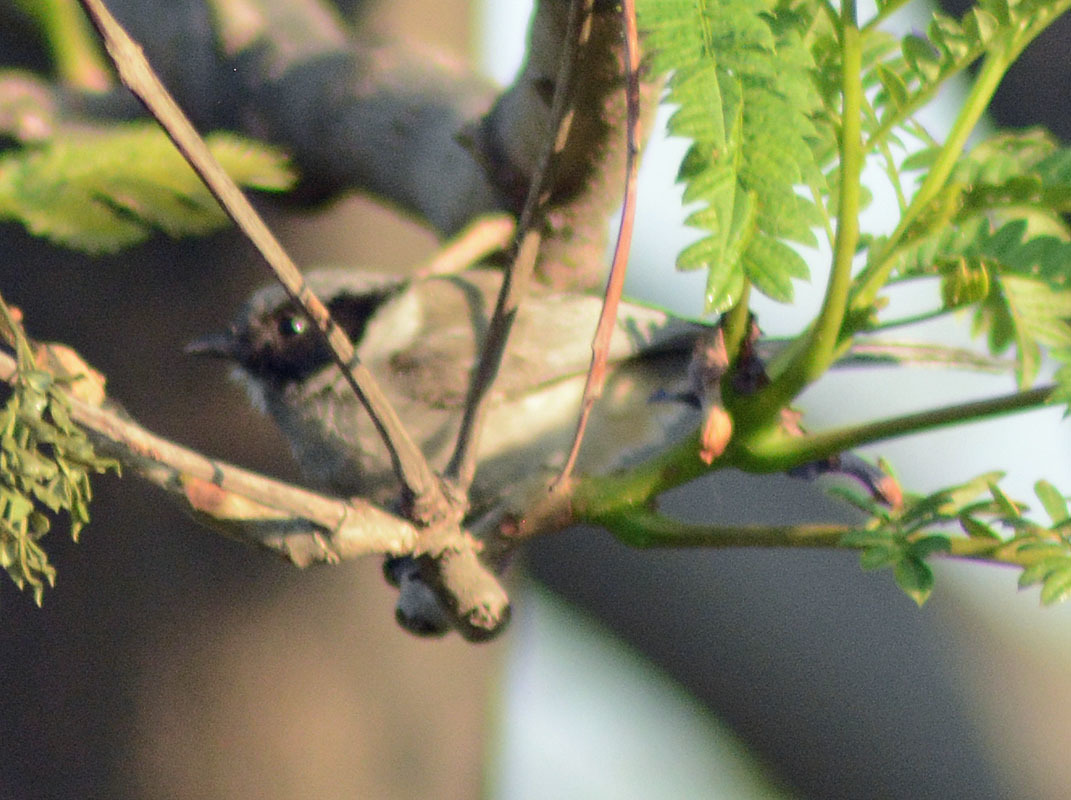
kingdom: Animalia
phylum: Chordata
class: Aves
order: Passeriformes
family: Aegithalidae
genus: Psaltriparus
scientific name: Psaltriparus minimus
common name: American bushtit
